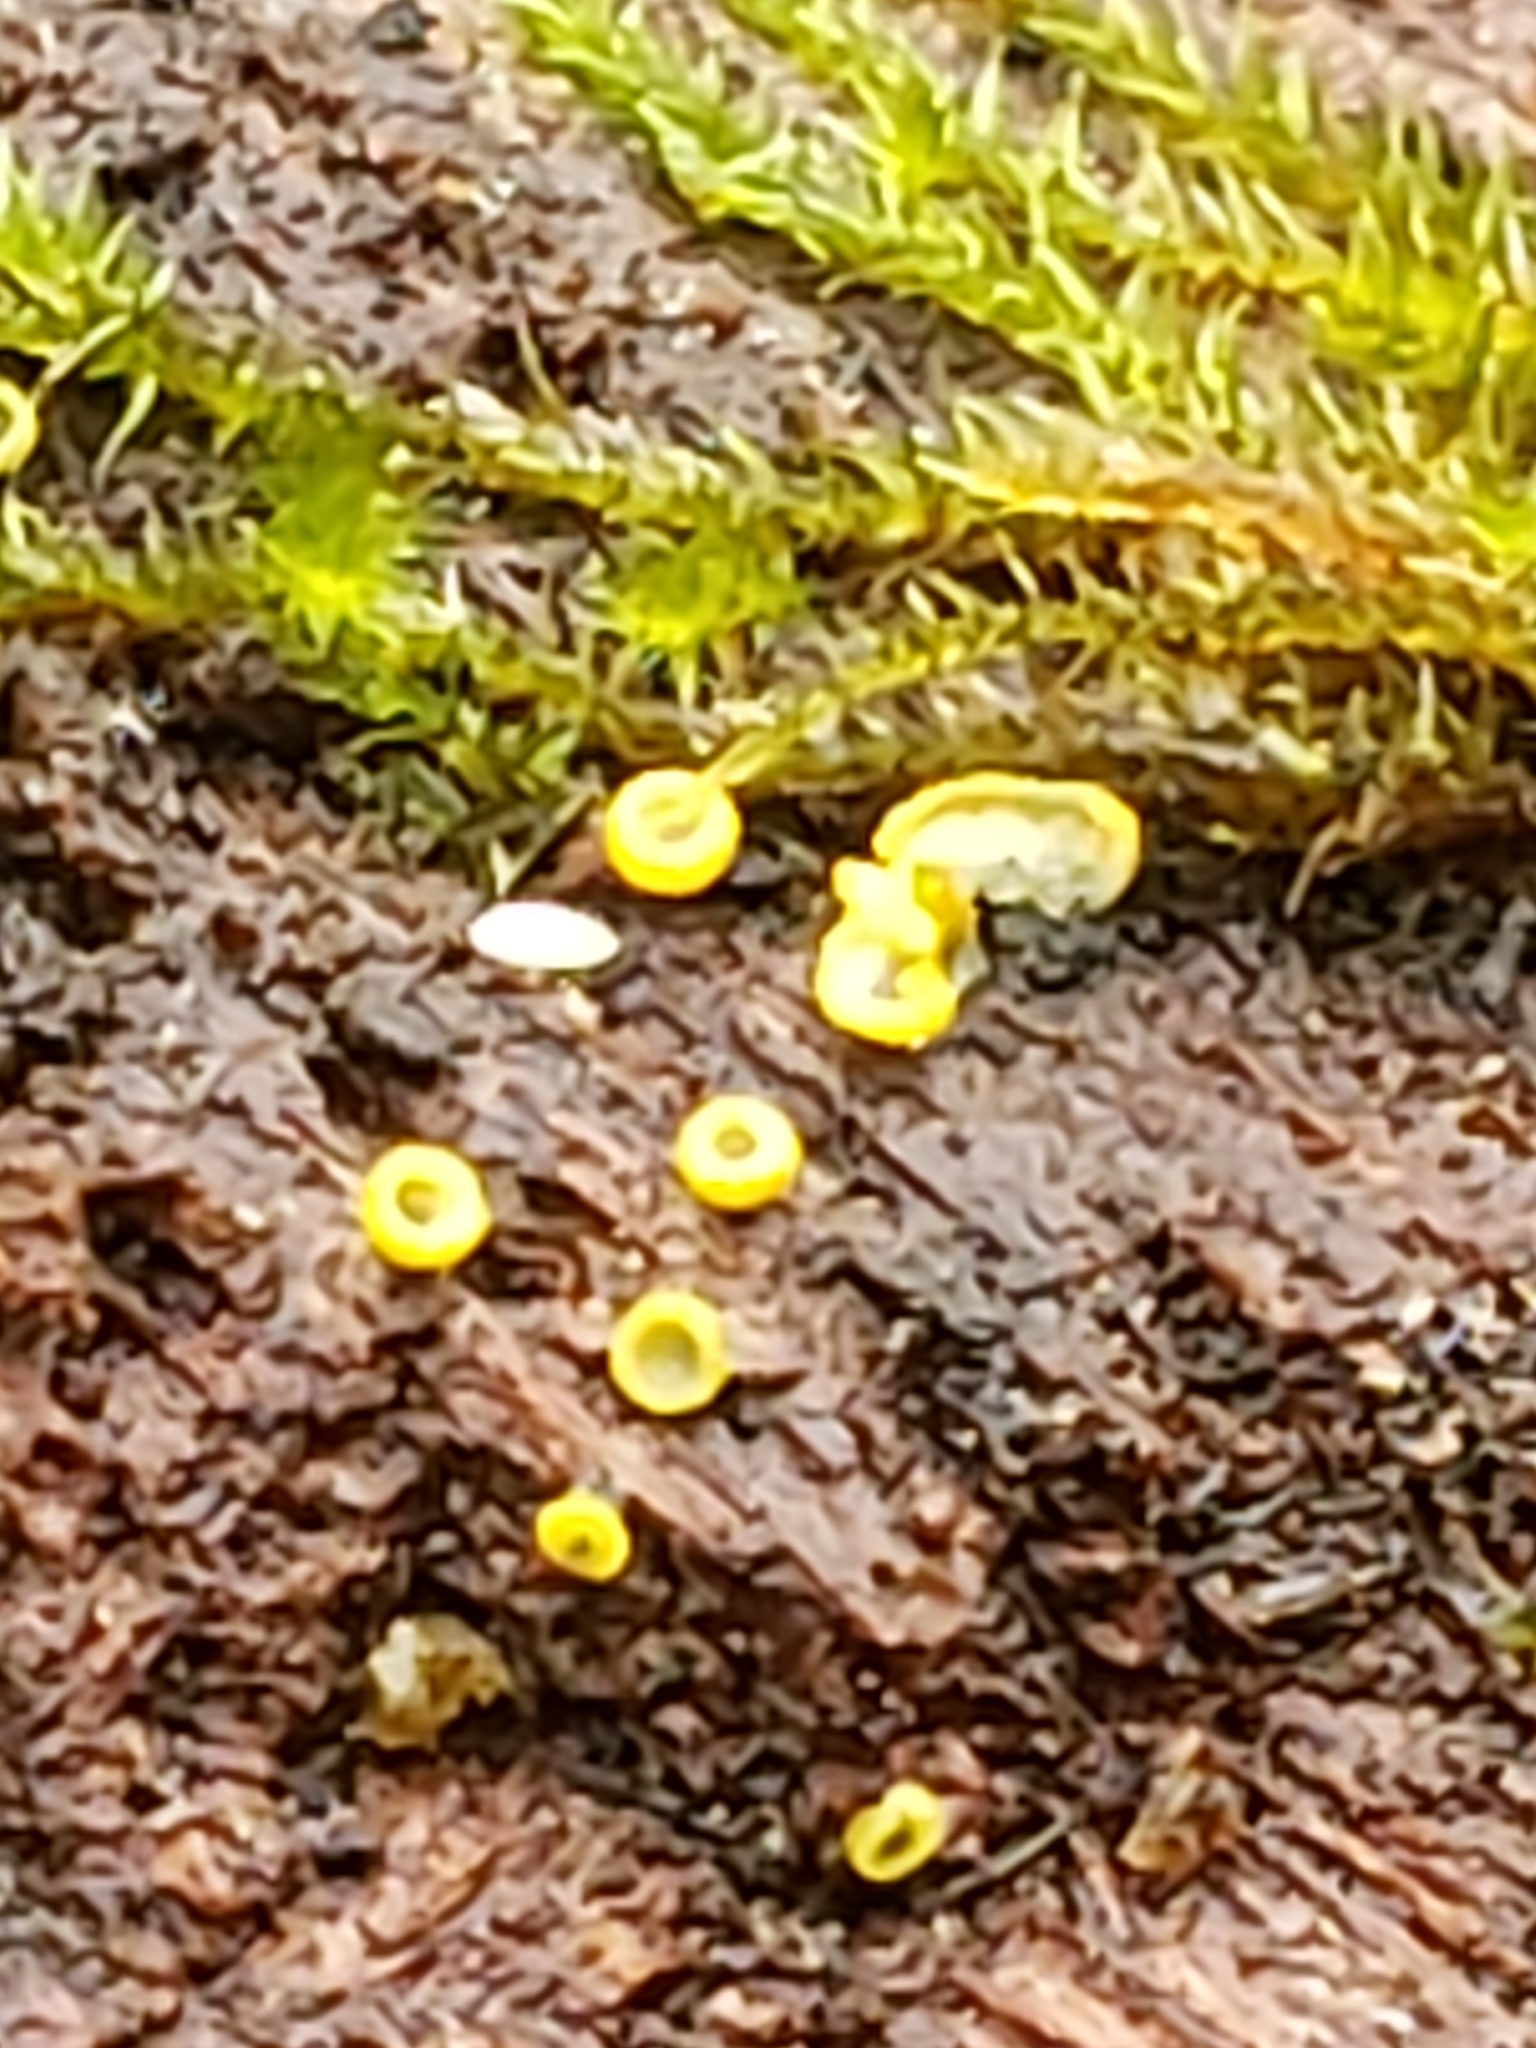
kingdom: Fungi
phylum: Ascomycota
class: Leotiomycetes
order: Helotiales
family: Chlorospleniaceae
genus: Chlorosplenium
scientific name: Chlorosplenium chlora
